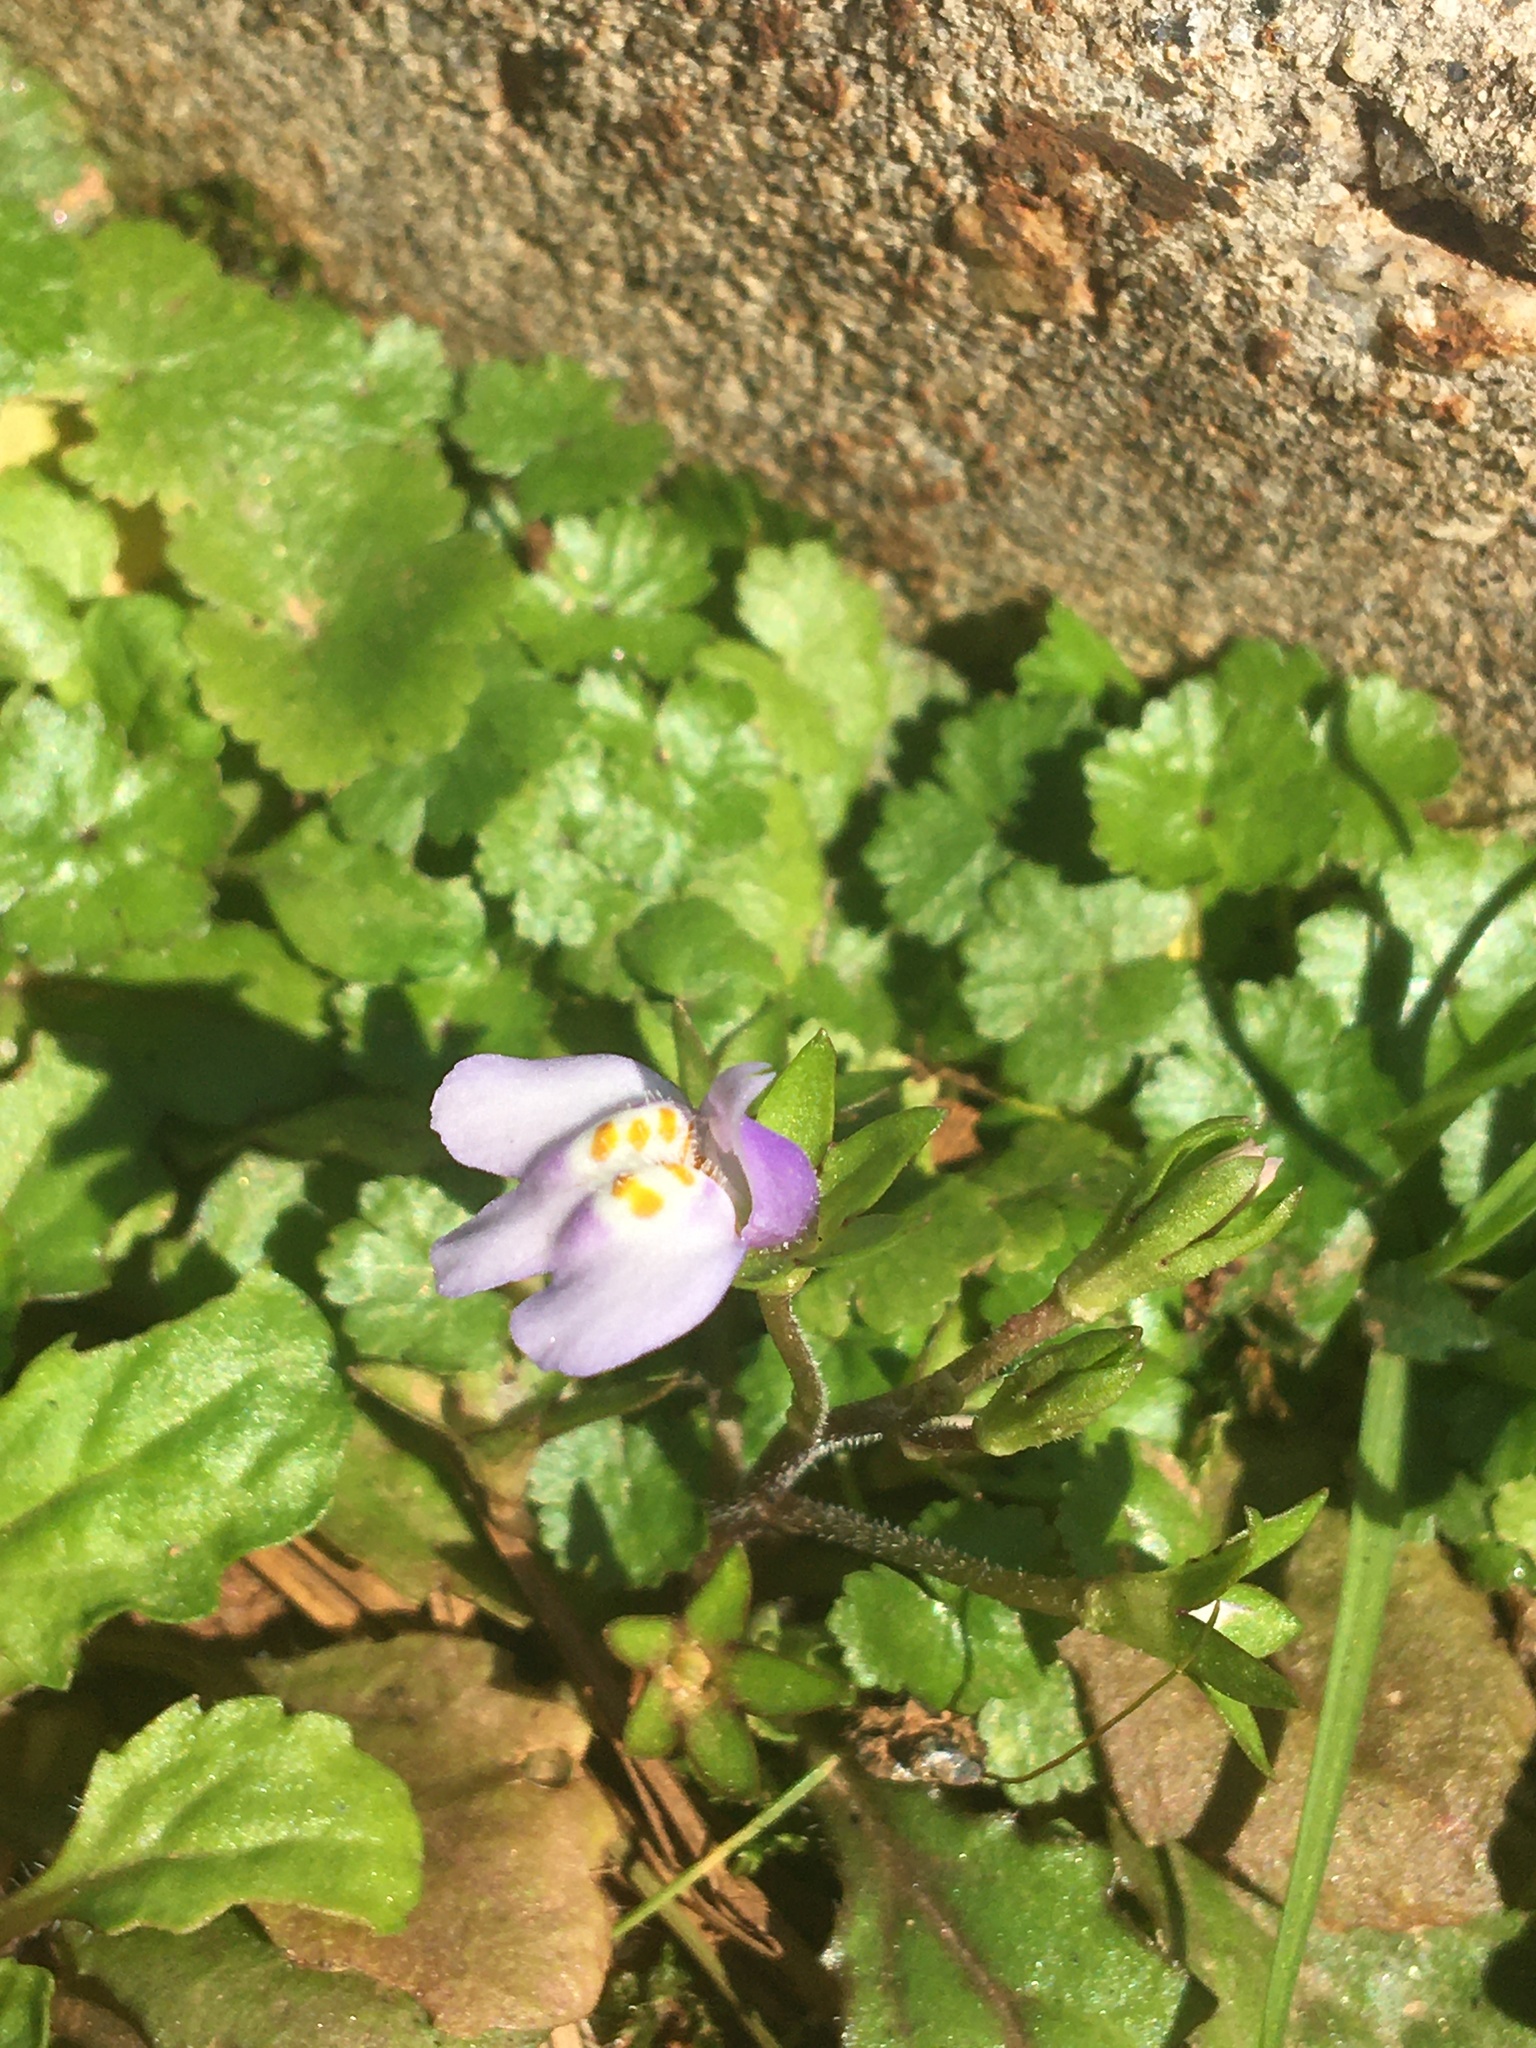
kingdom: Plantae
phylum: Tracheophyta
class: Magnoliopsida
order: Lamiales
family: Mazaceae
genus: Mazus
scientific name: Mazus pumilus
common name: Japanese mazus
